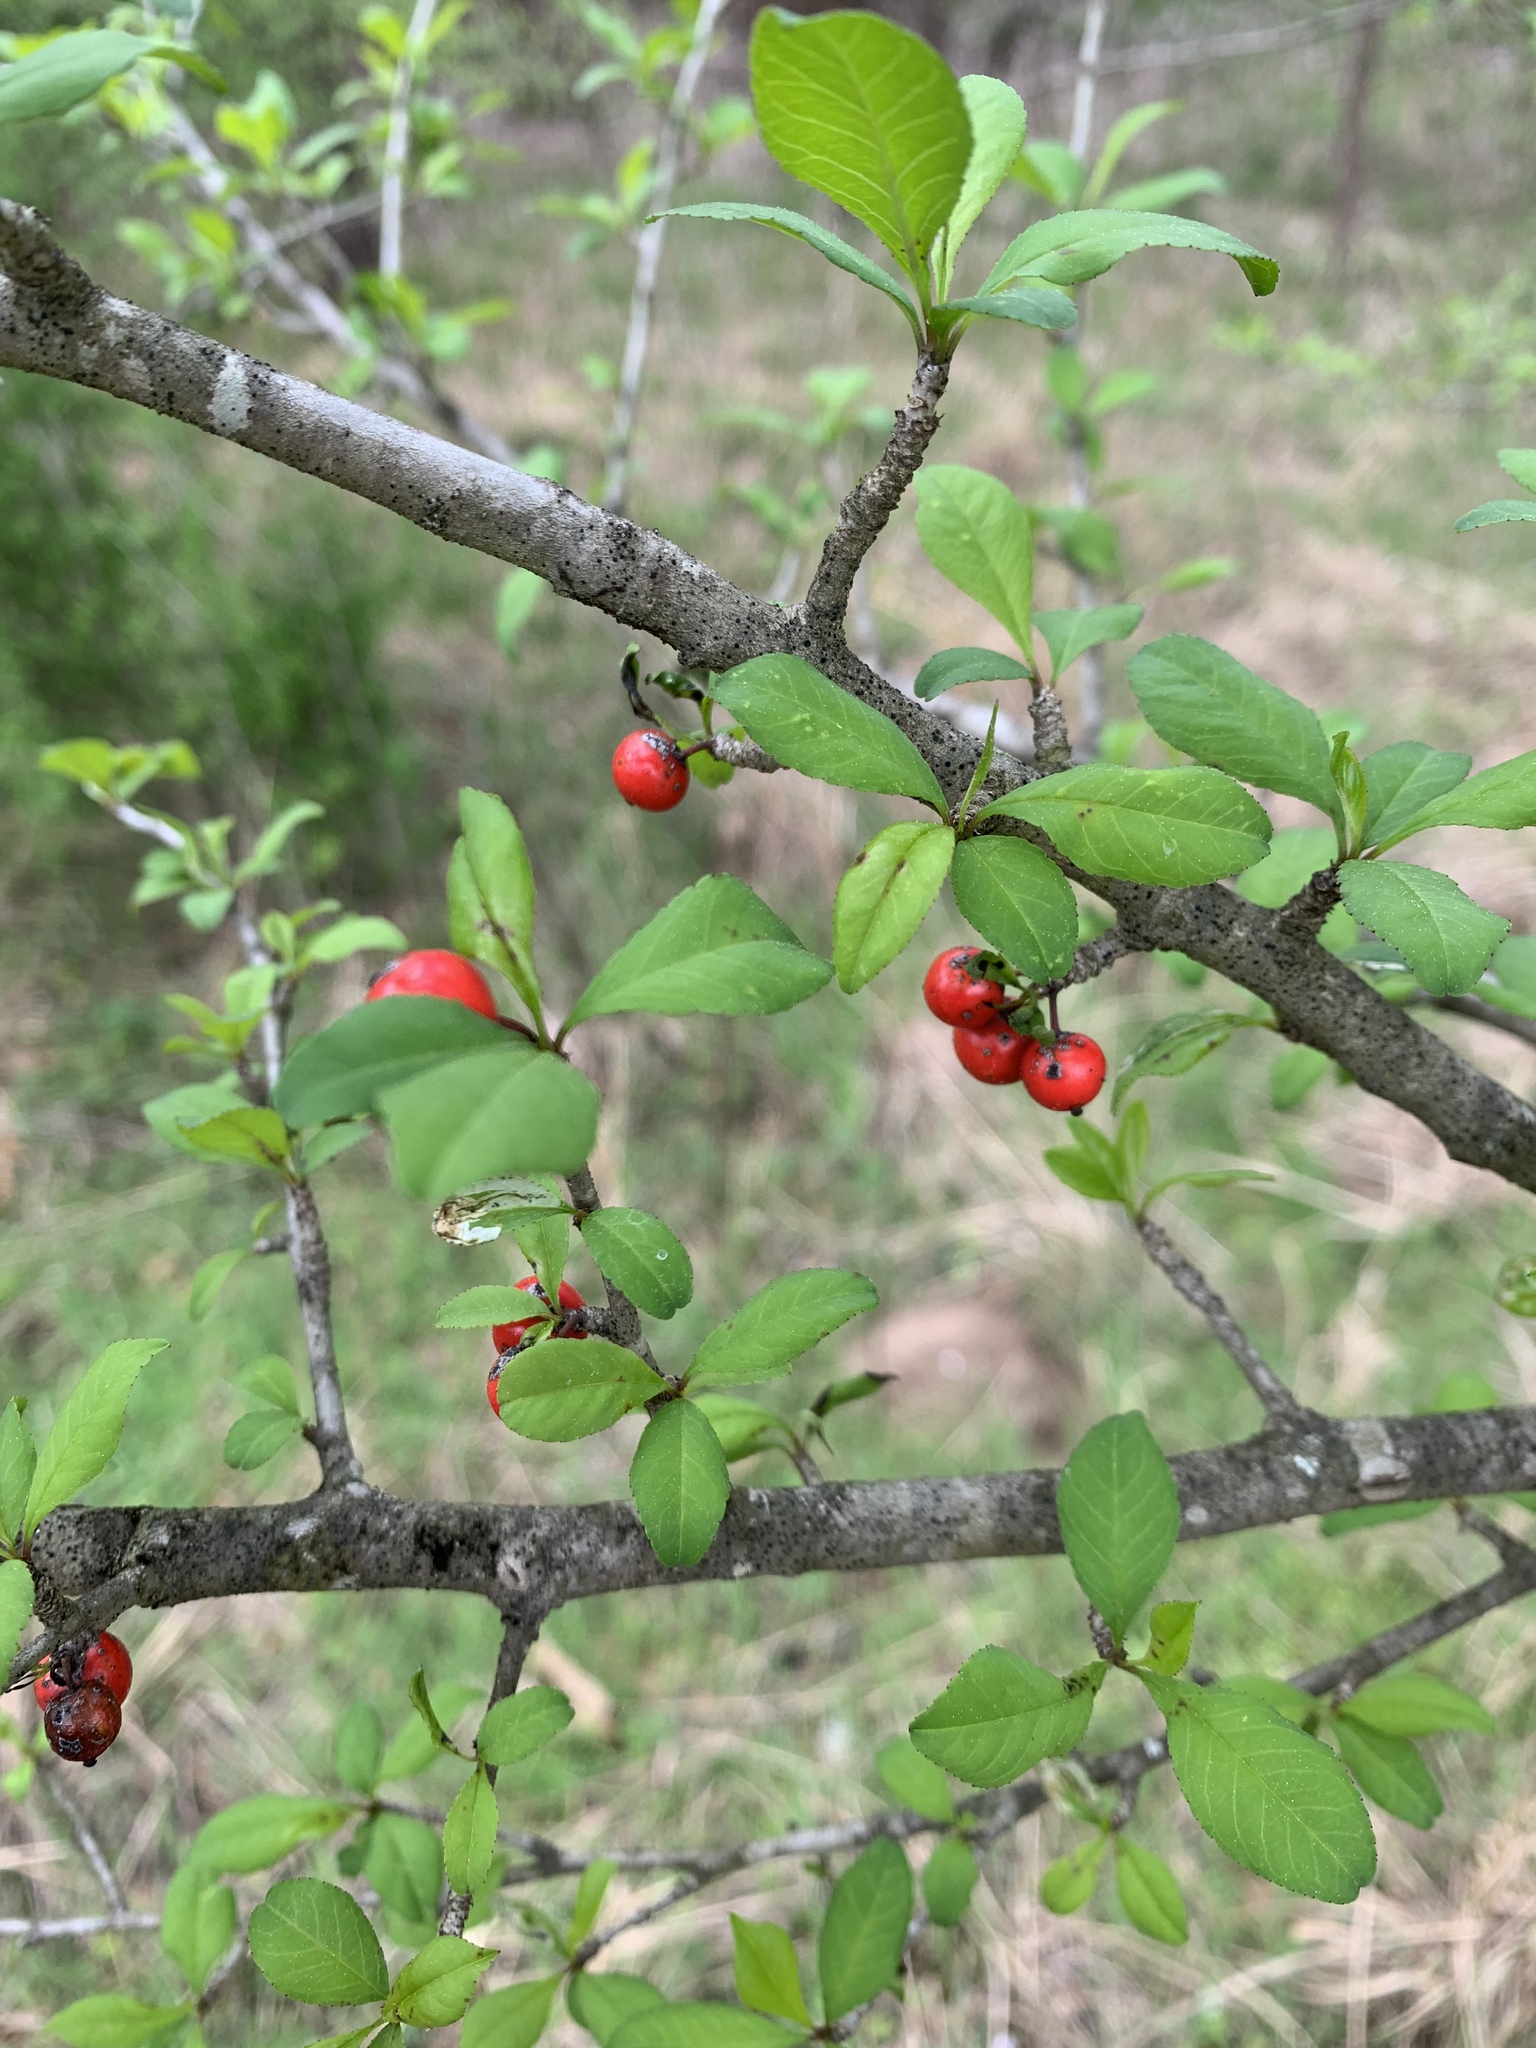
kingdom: Plantae
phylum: Tracheophyta
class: Magnoliopsida
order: Aquifoliales
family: Aquifoliaceae
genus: Ilex
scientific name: Ilex decidua
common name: Possum-haw
